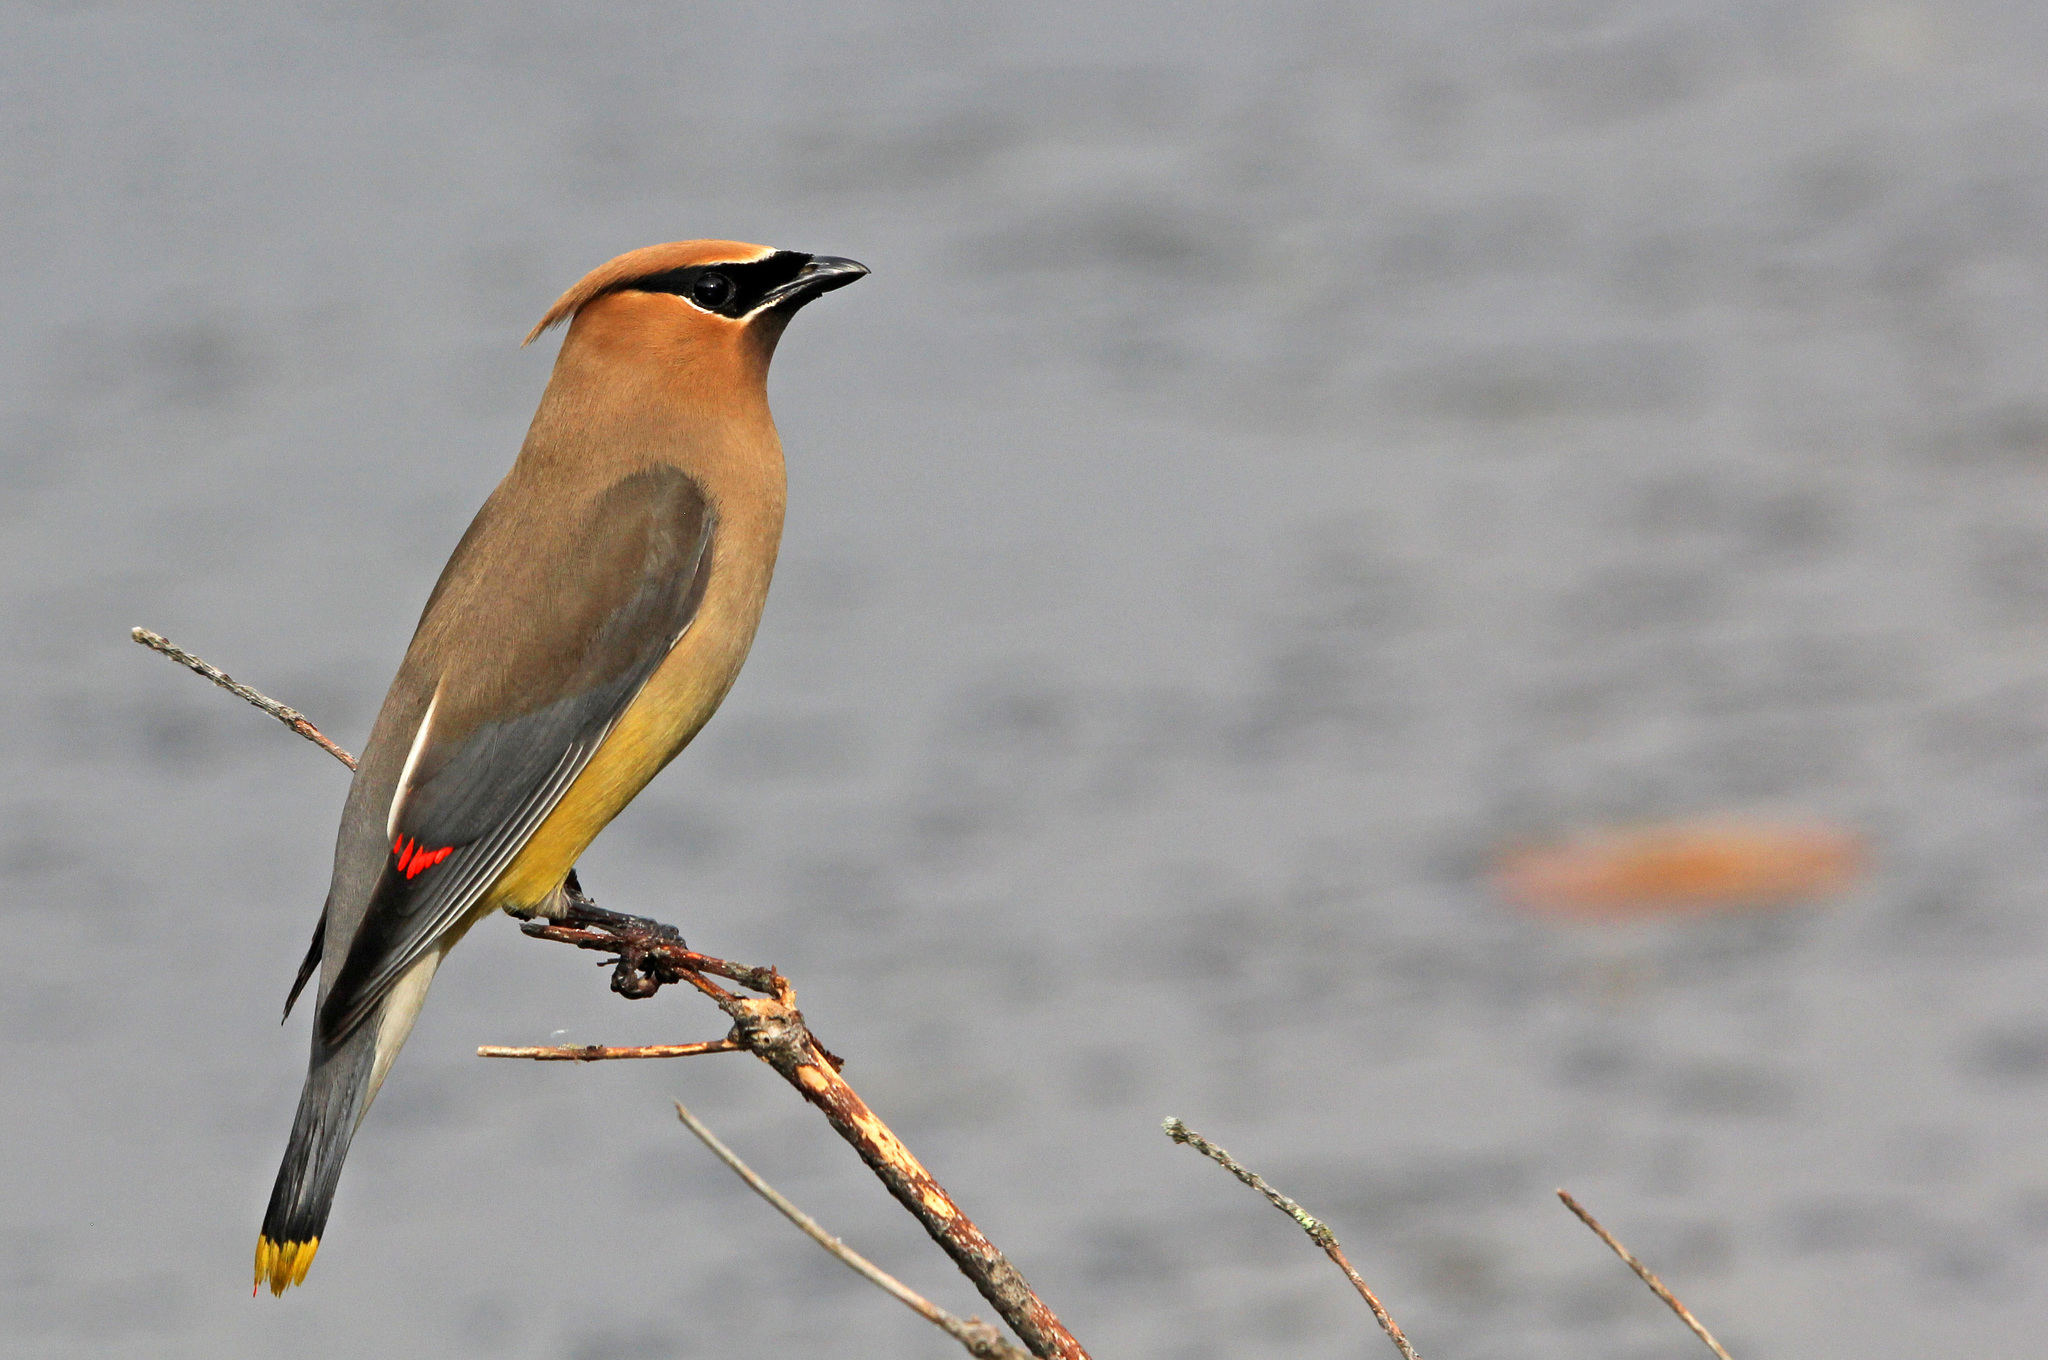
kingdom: Animalia
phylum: Chordata
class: Aves
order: Passeriformes
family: Bombycillidae
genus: Bombycilla
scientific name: Bombycilla cedrorum
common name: Cedar waxwing
